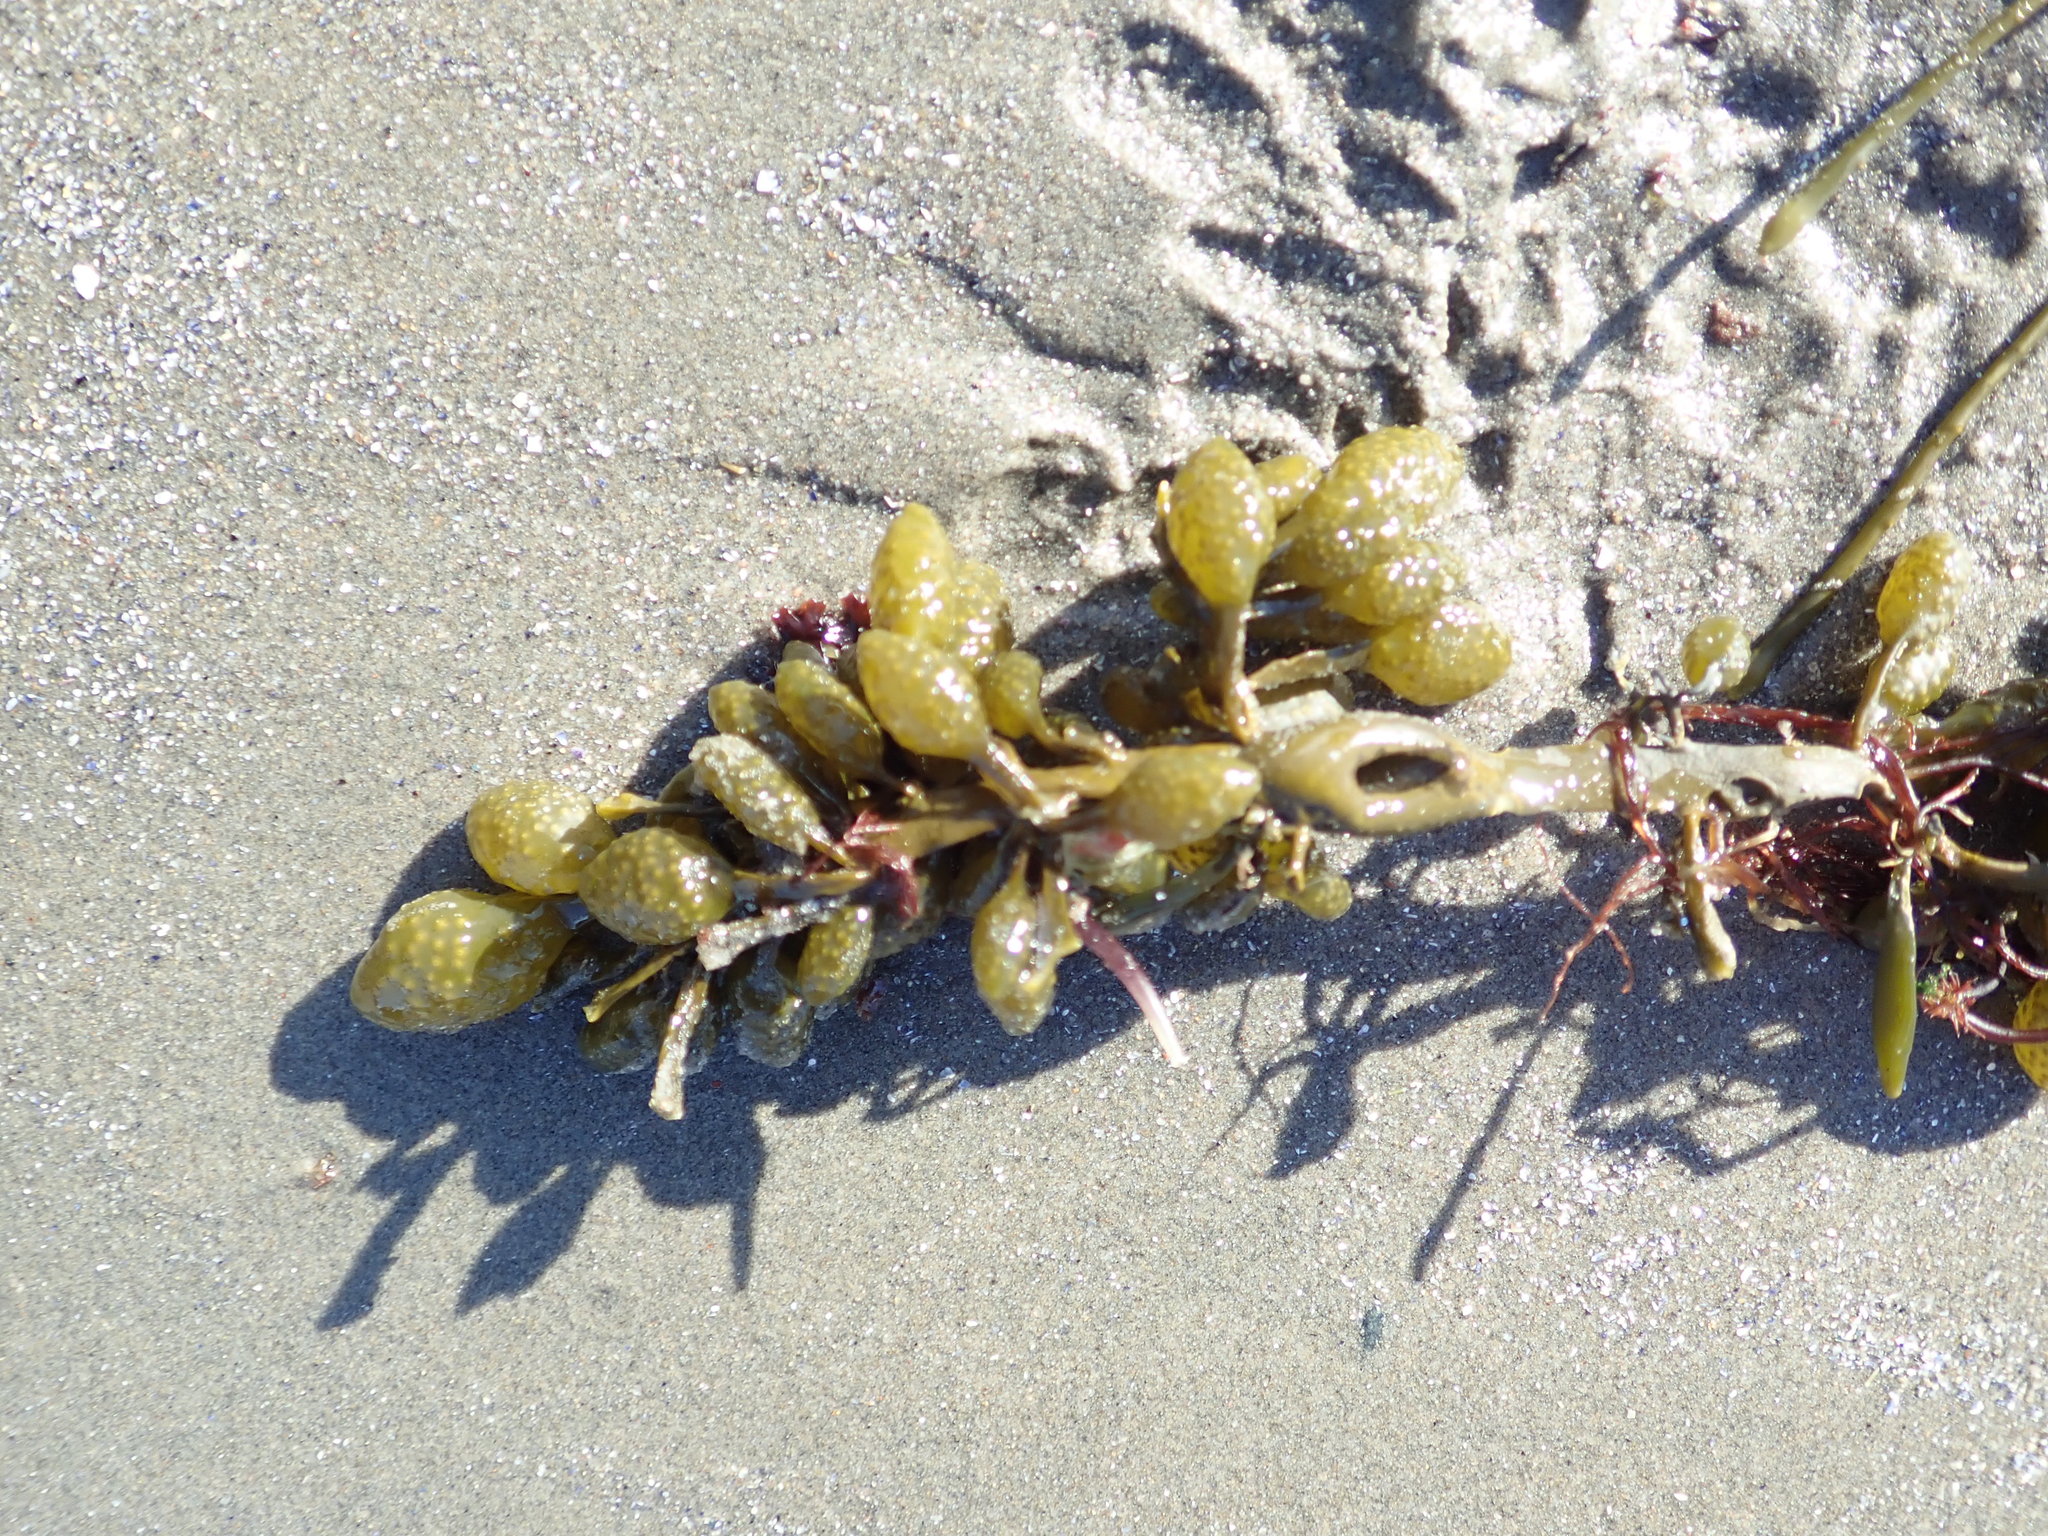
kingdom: Chromista
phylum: Ochrophyta
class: Phaeophyceae
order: Fucales
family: Fucaceae
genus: Ascophyllum
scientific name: Ascophyllum nodosum
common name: Knotted wrack
